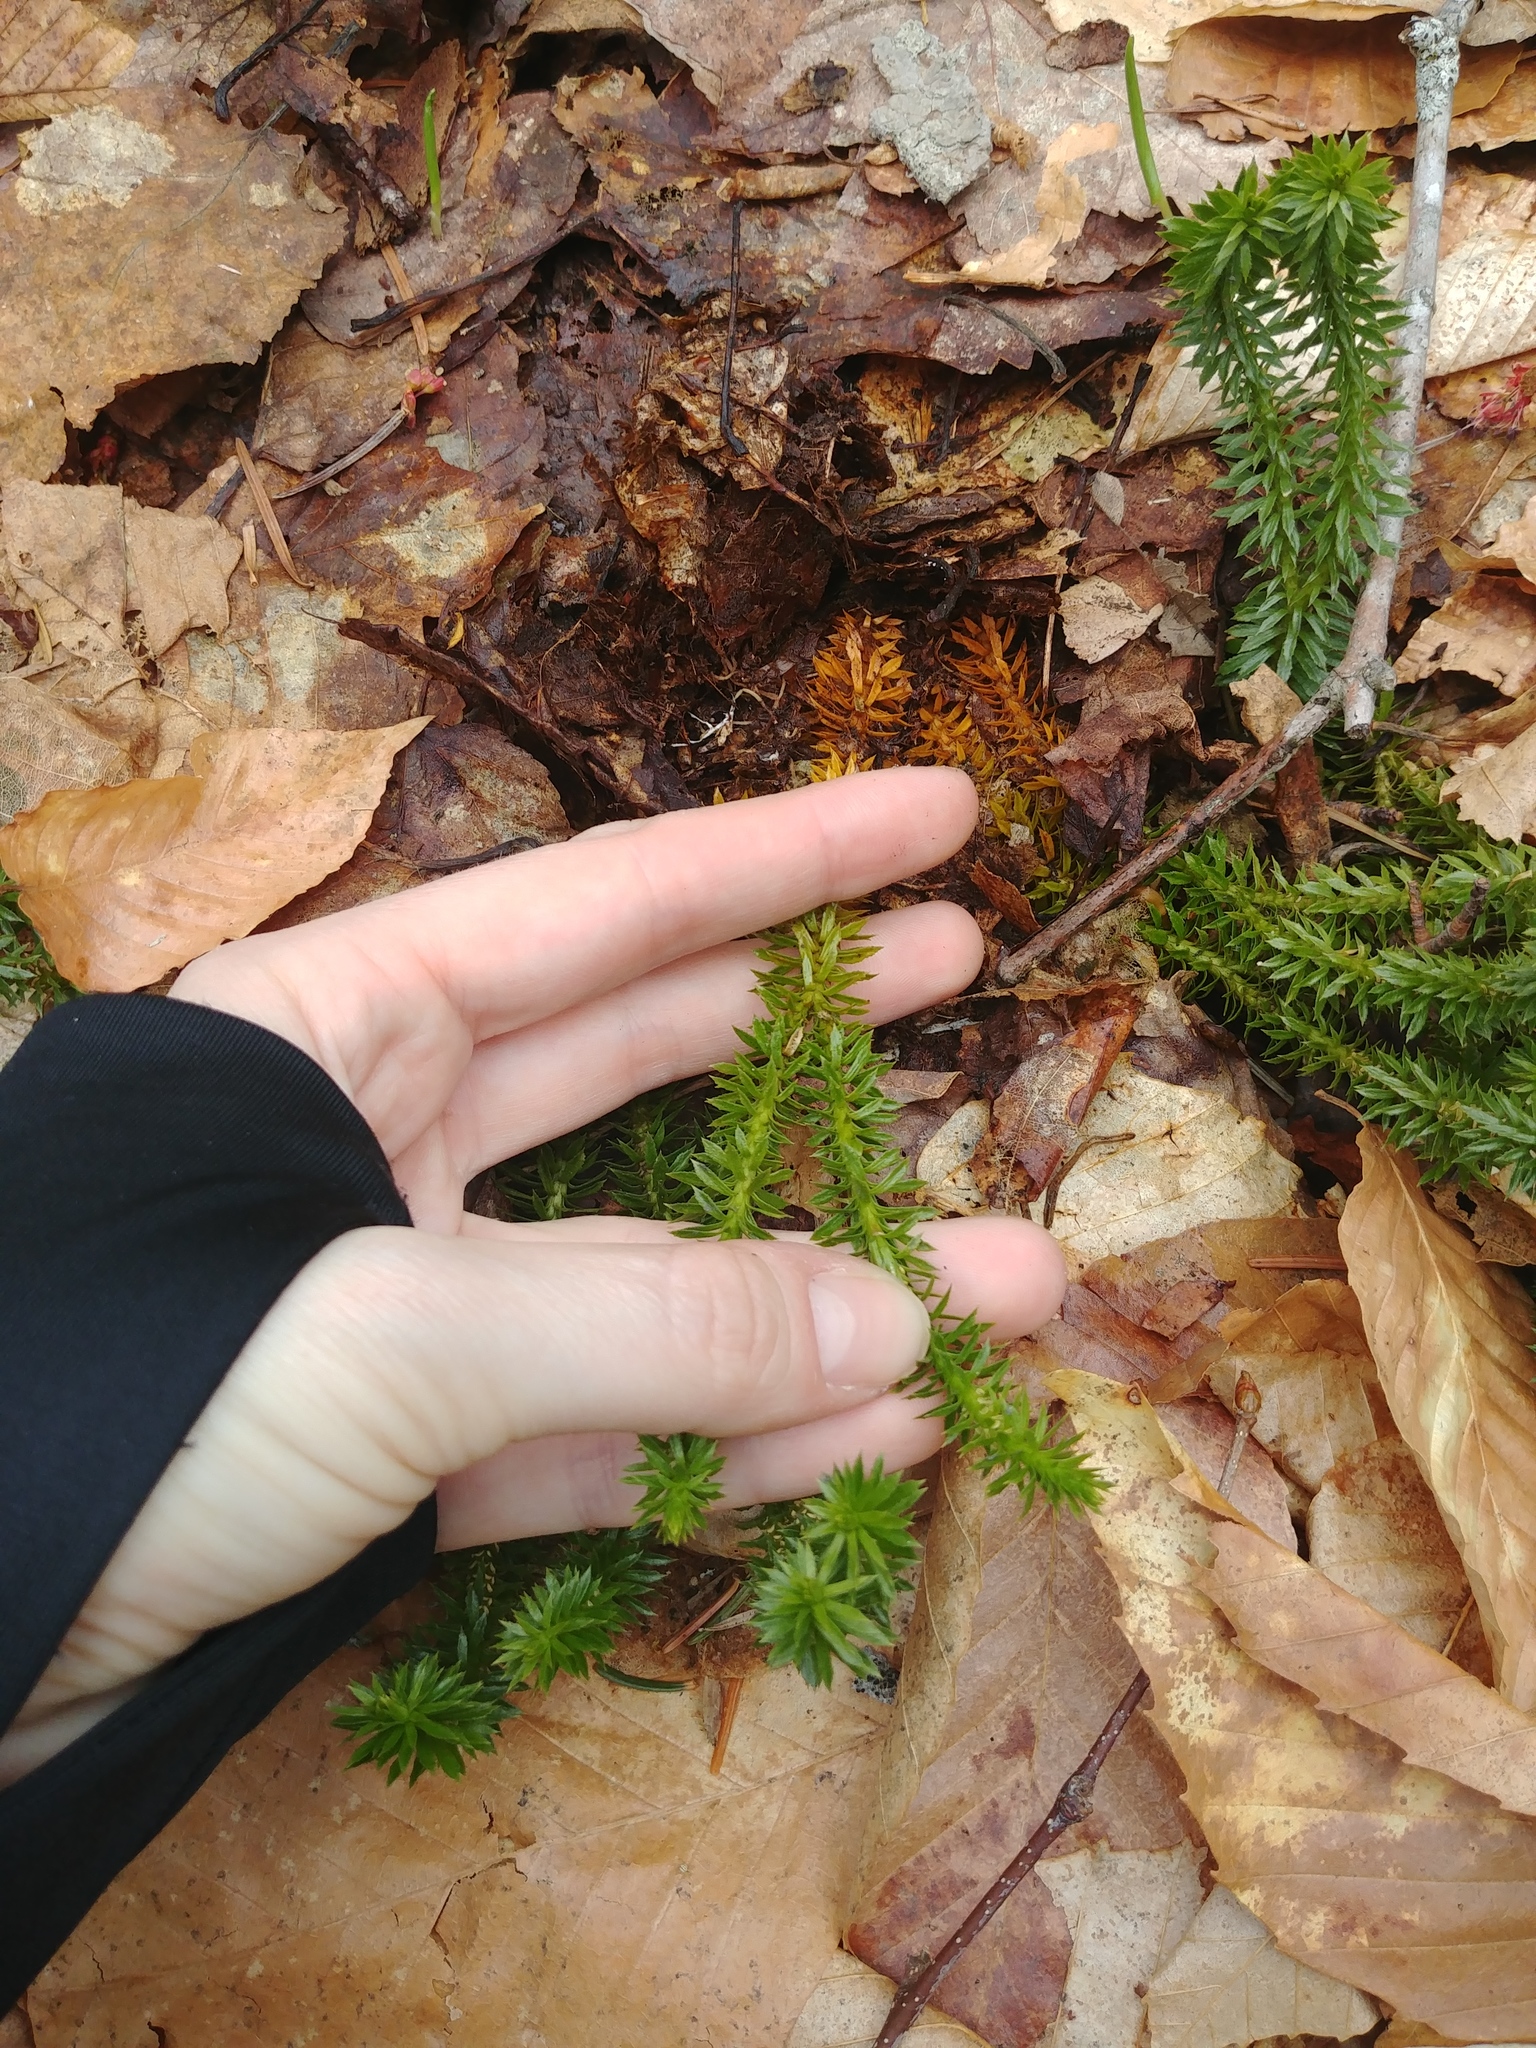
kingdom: Plantae
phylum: Tracheophyta
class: Lycopodiopsida
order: Lycopodiales
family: Lycopodiaceae
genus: Huperzia
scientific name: Huperzia lucidula
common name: Shining clubmoss
